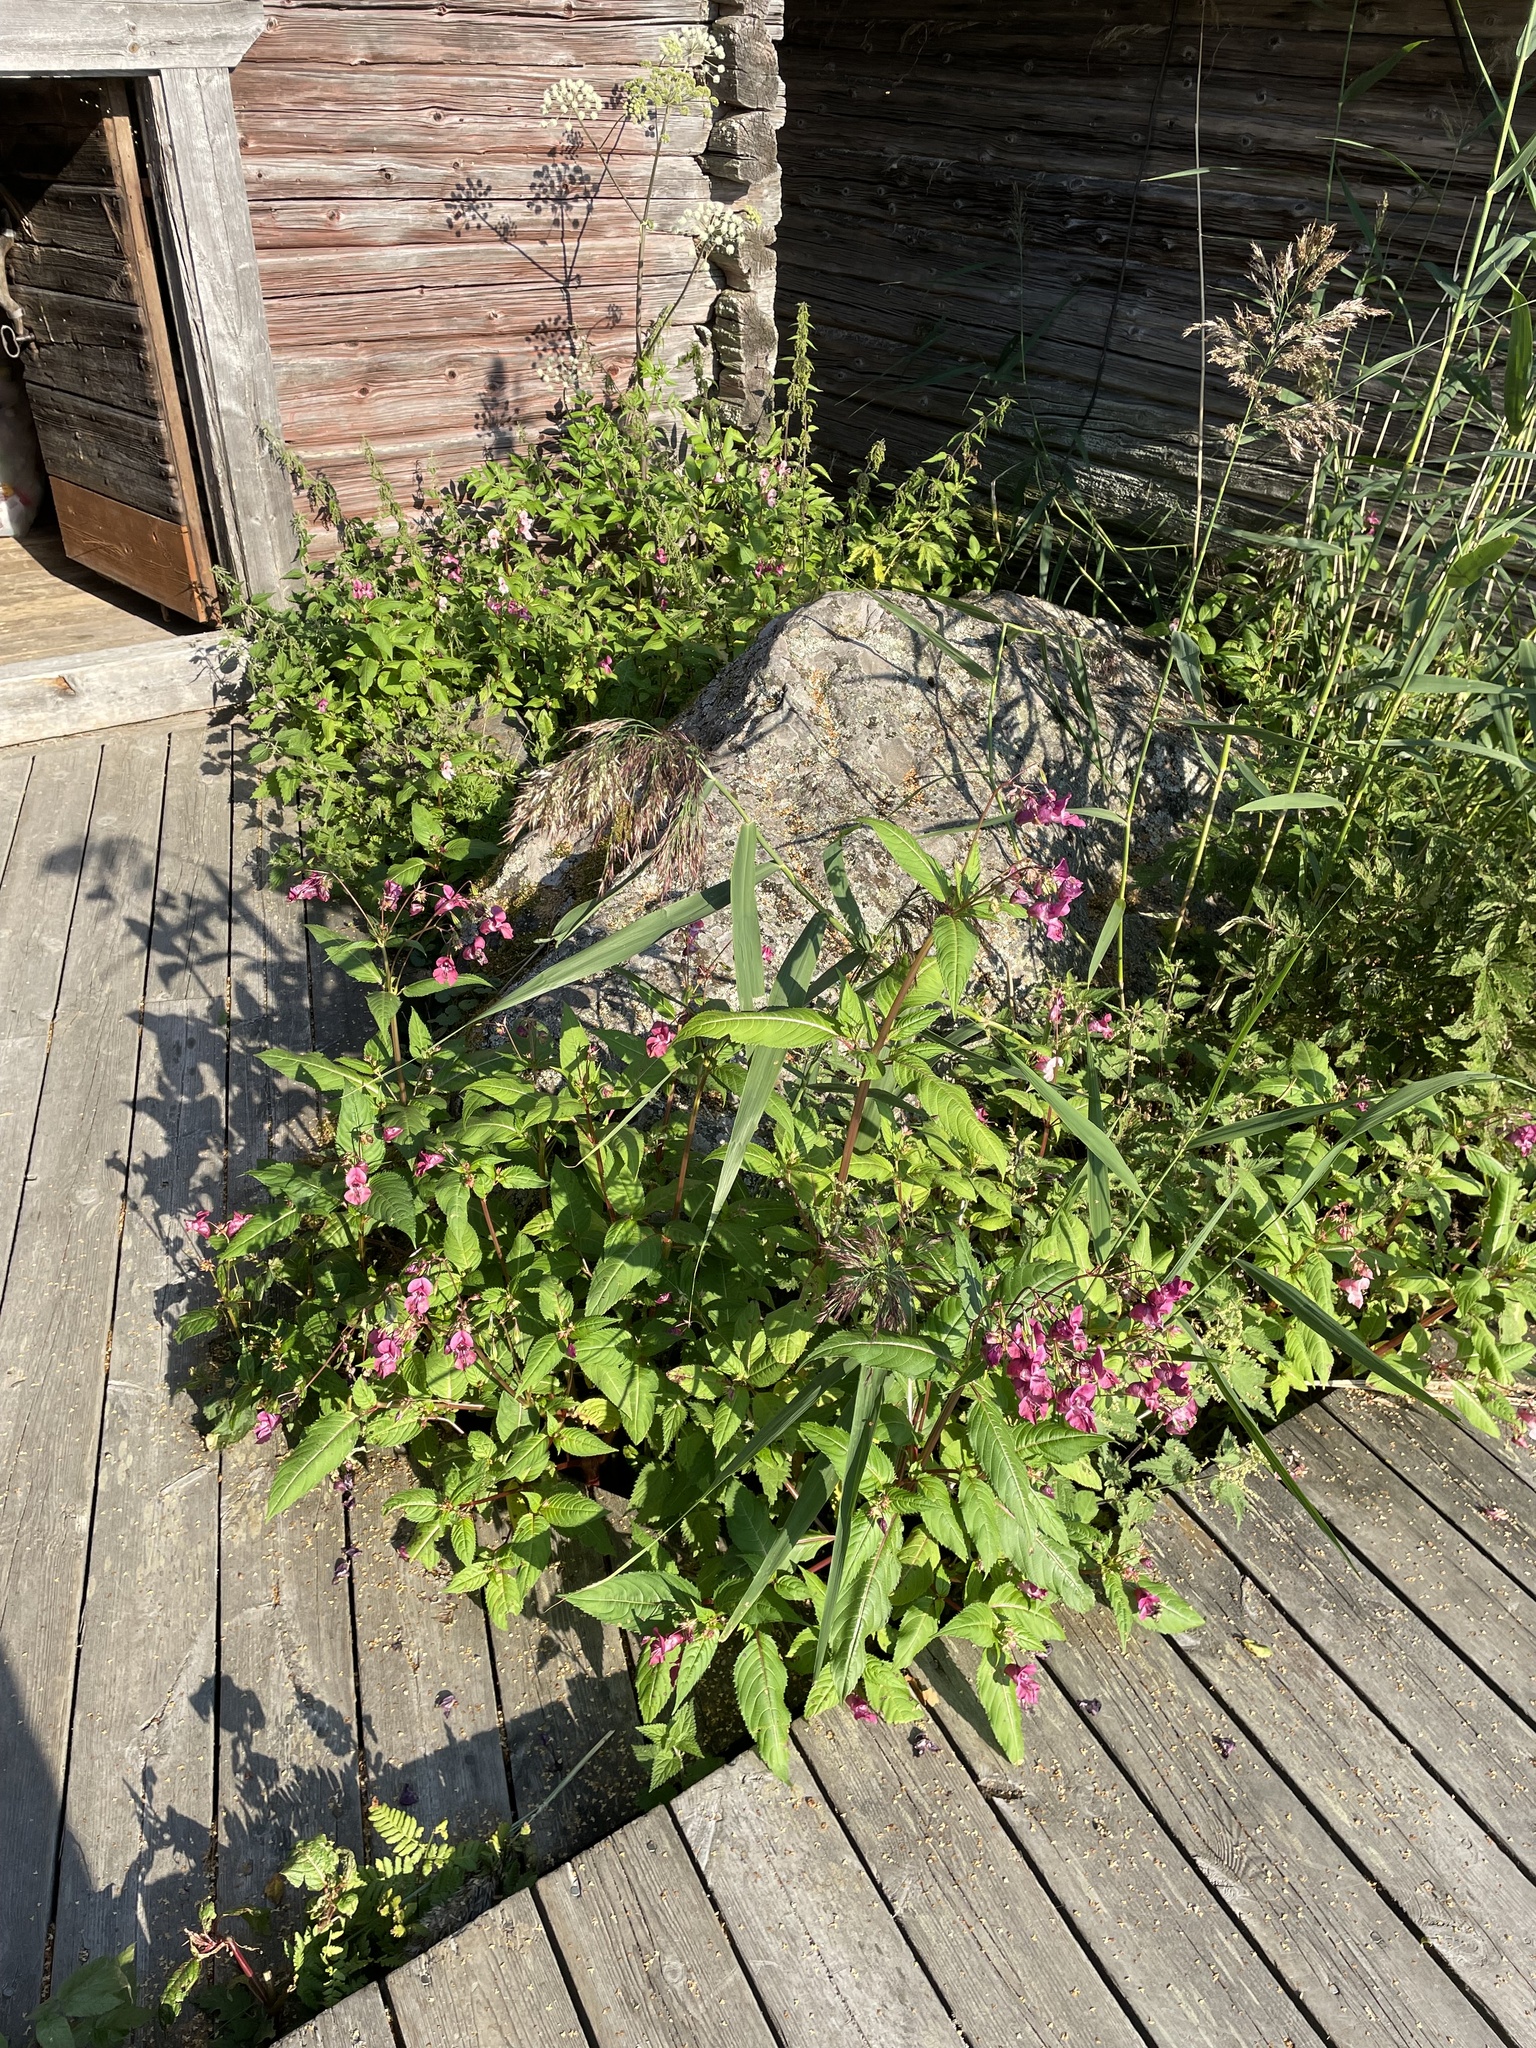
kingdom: Plantae
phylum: Tracheophyta
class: Magnoliopsida
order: Ericales
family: Balsaminaceae
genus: Impatiens
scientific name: Impatiens glandulifera
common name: Himalayan balsam
